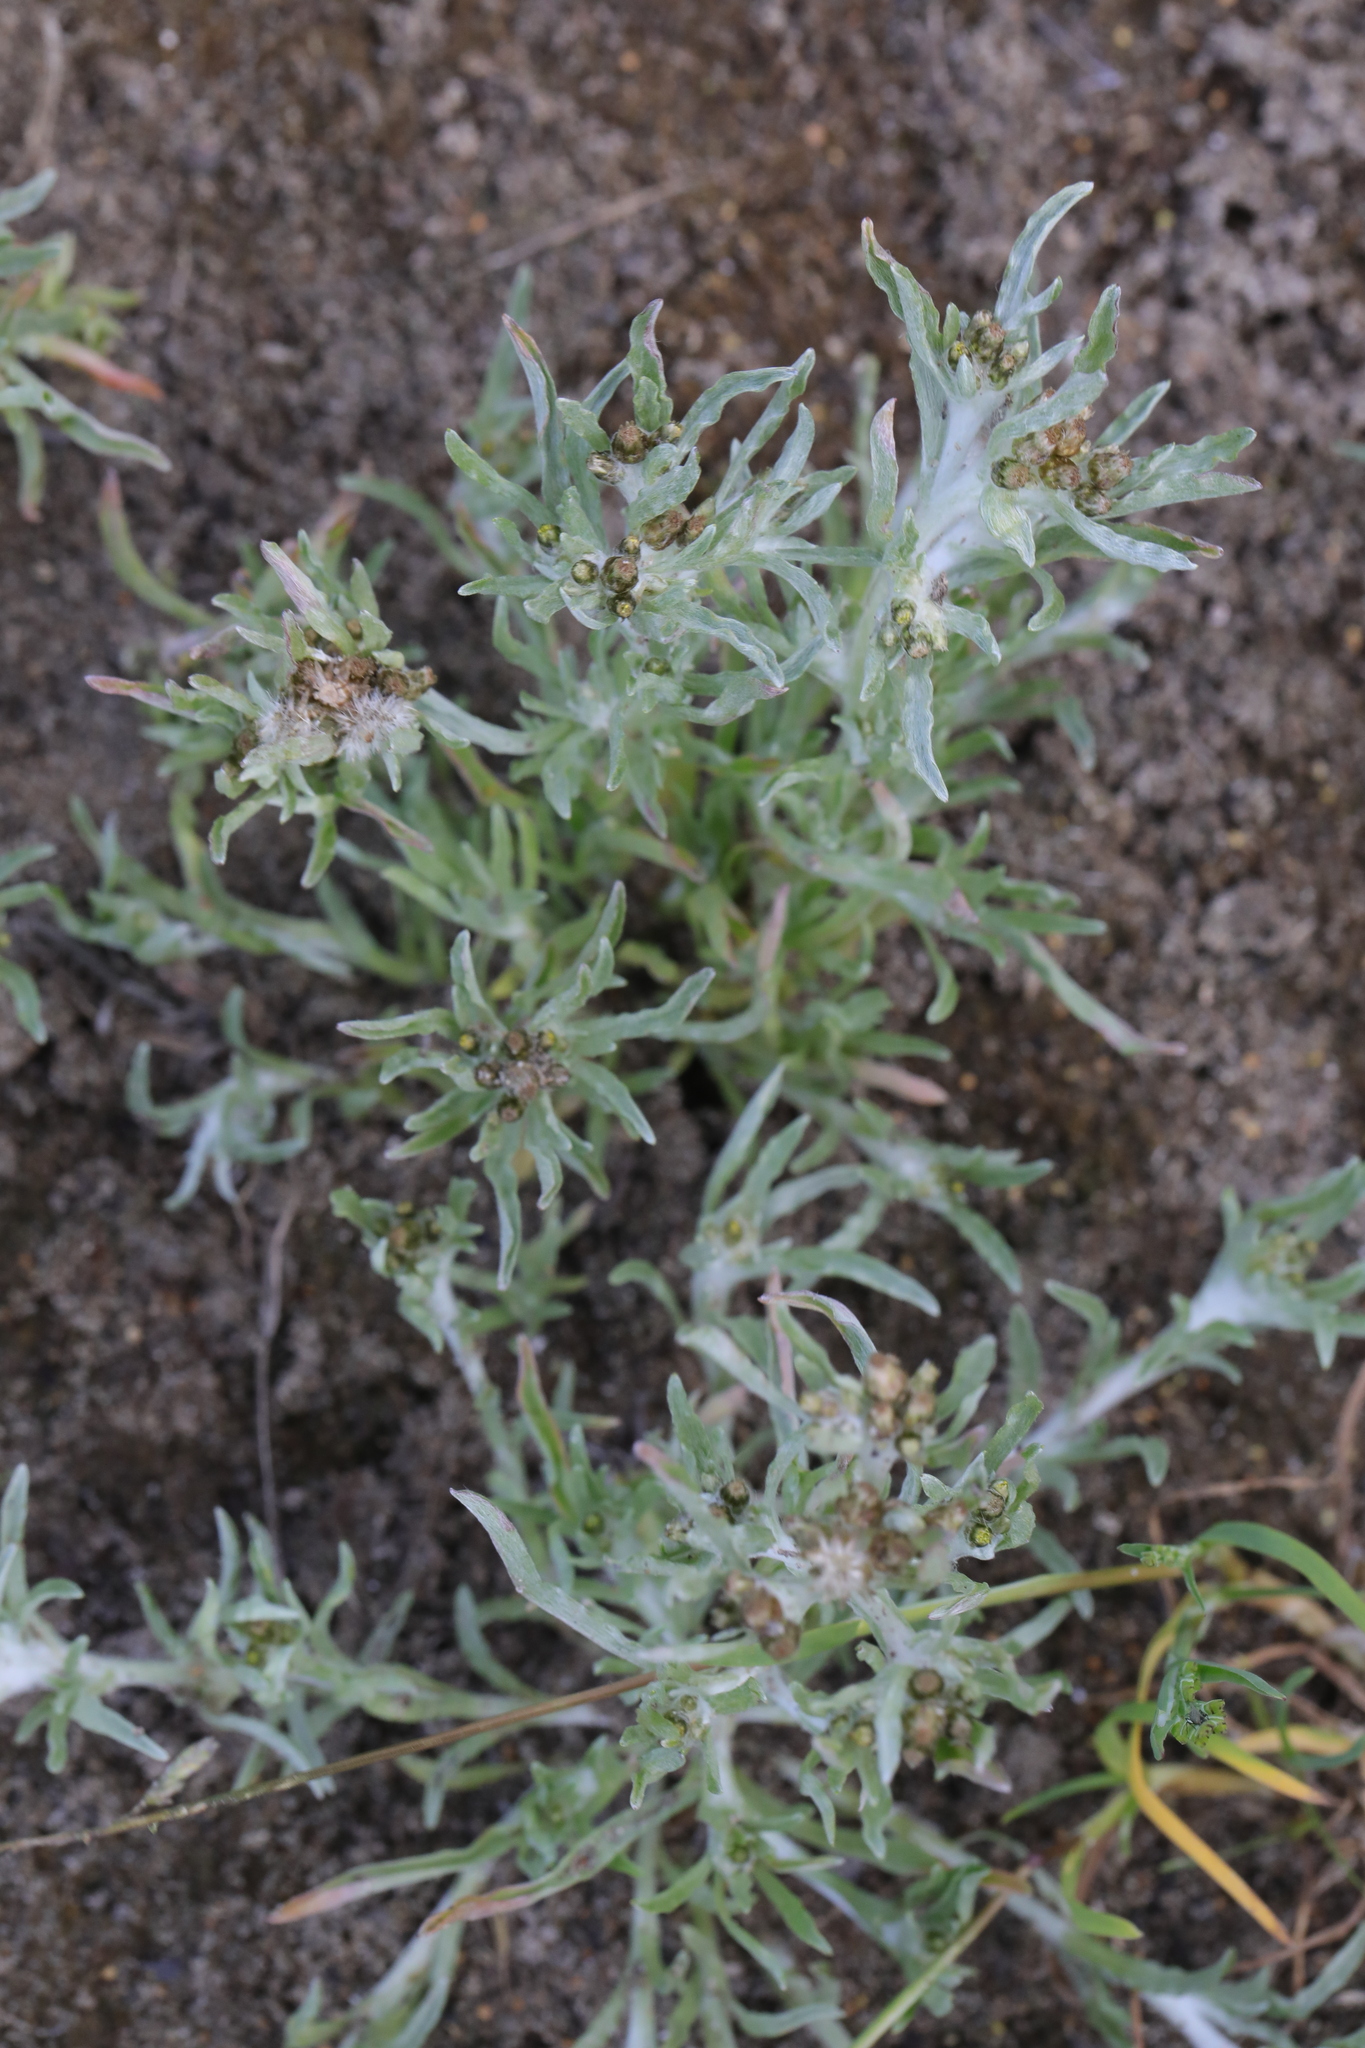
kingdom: Plantae
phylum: Tracheophyta
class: Magnoliopsida
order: Asterales
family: Asteraceae
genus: Gnaphalium
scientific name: Gnaphalium uliginosum
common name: Marsh cudweed
